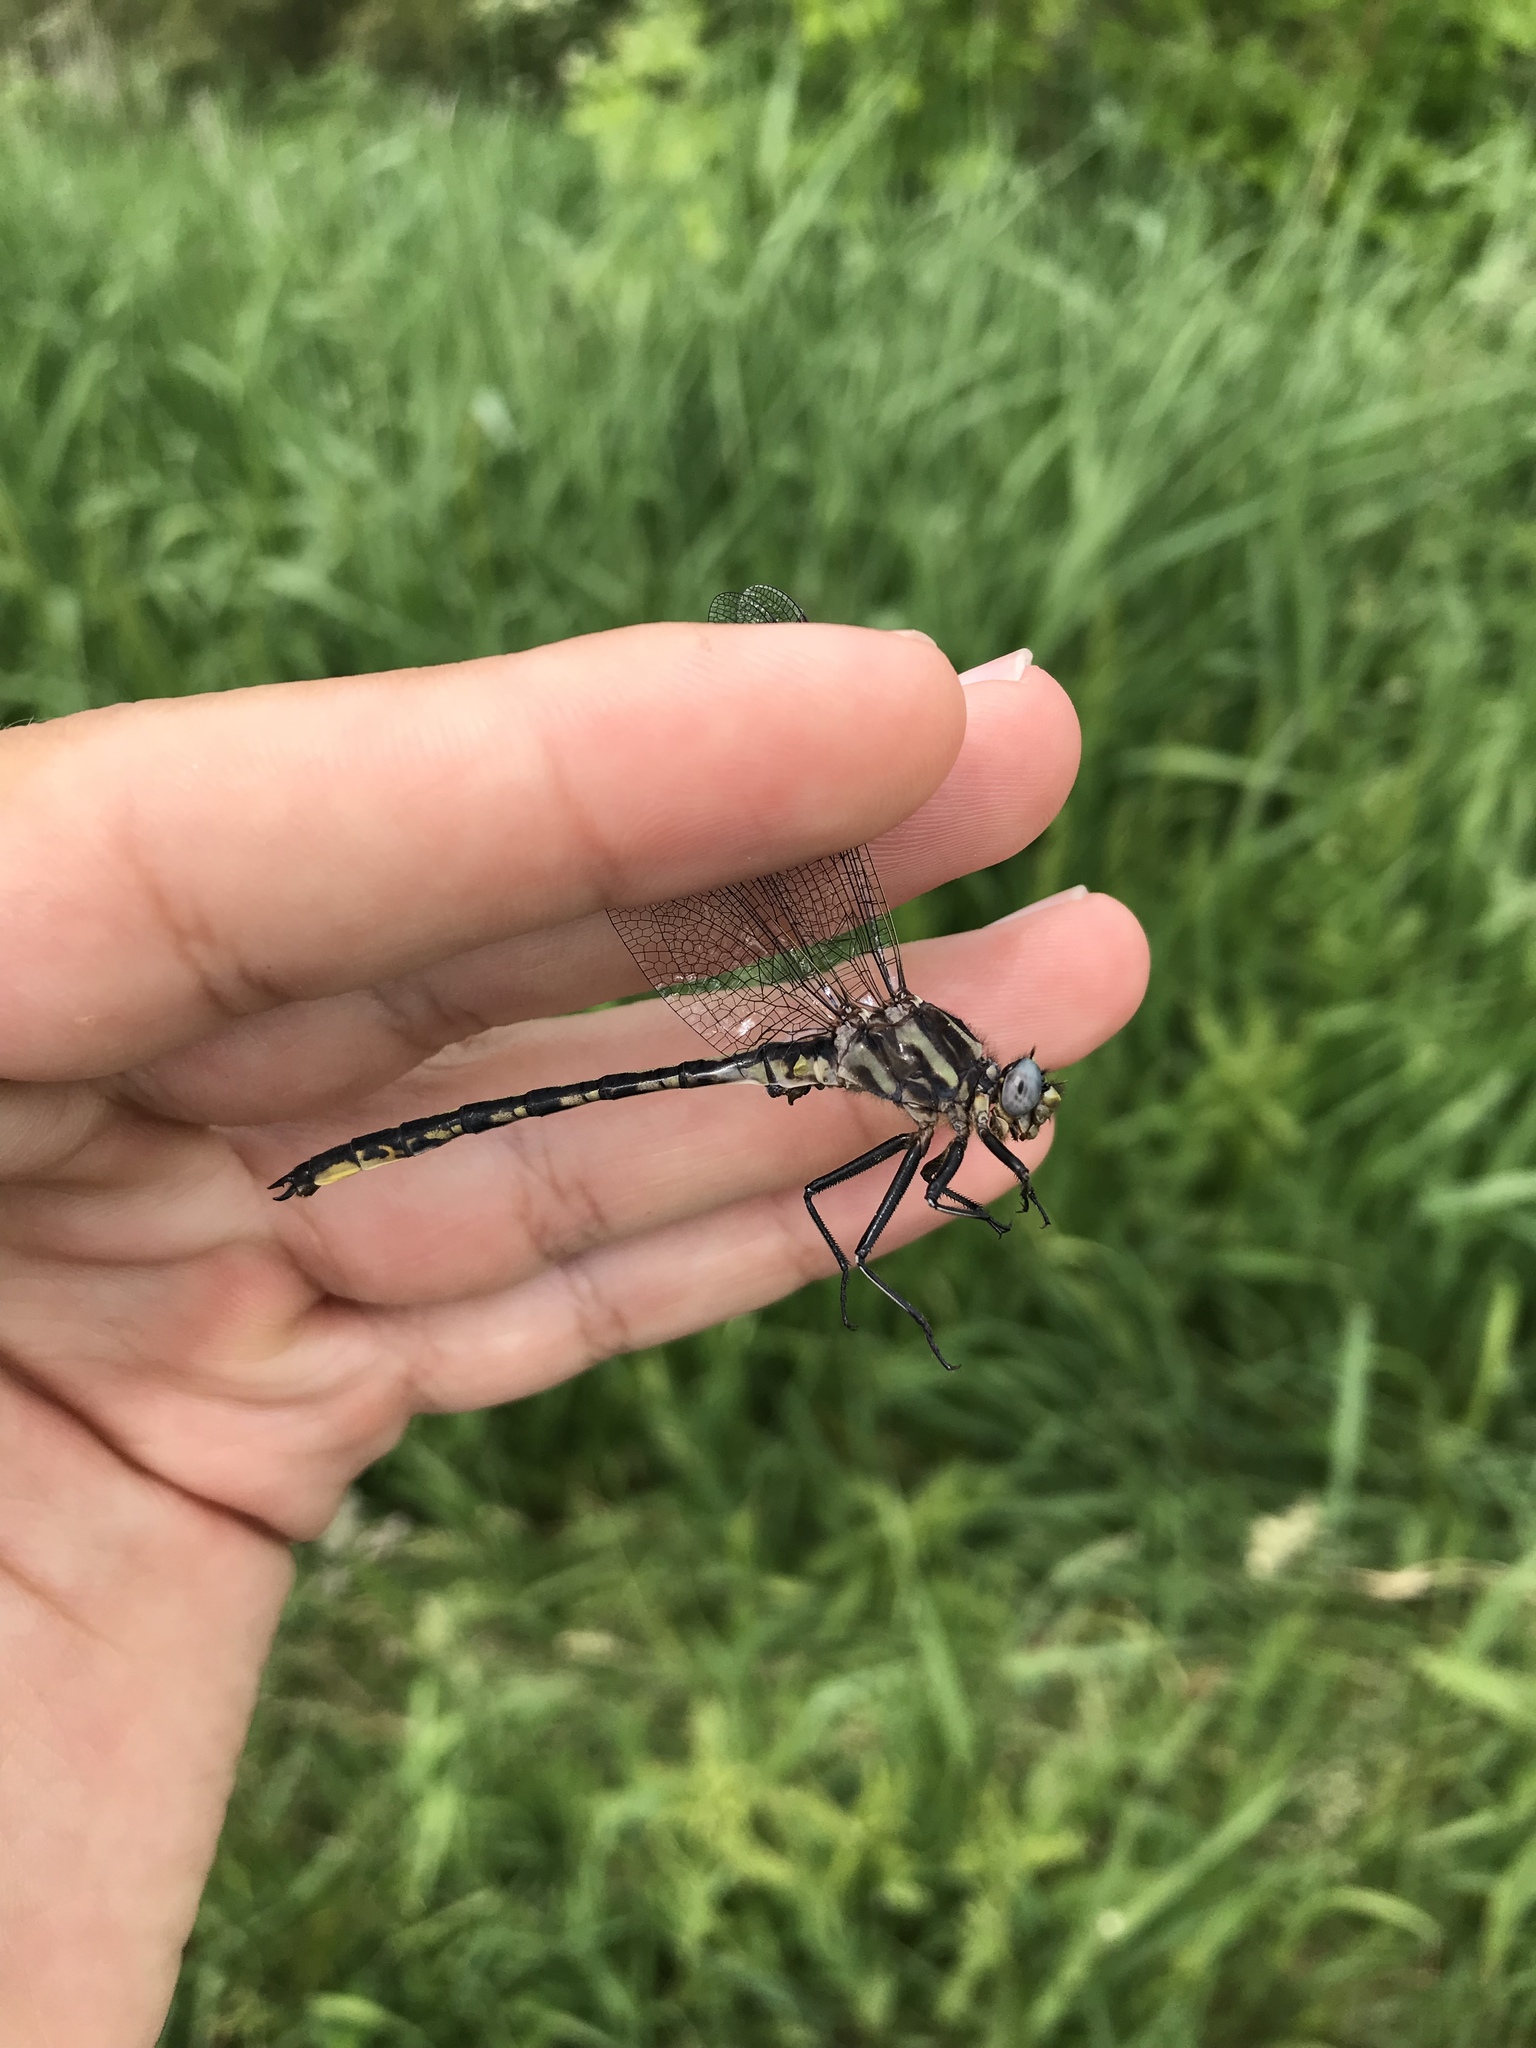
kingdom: Animalia
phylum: Arthropoda
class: Insecta
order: Odonata
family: Gomphidae
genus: Phanogomphus
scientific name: Phanogomphus spicatus
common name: Dusky clubtail
